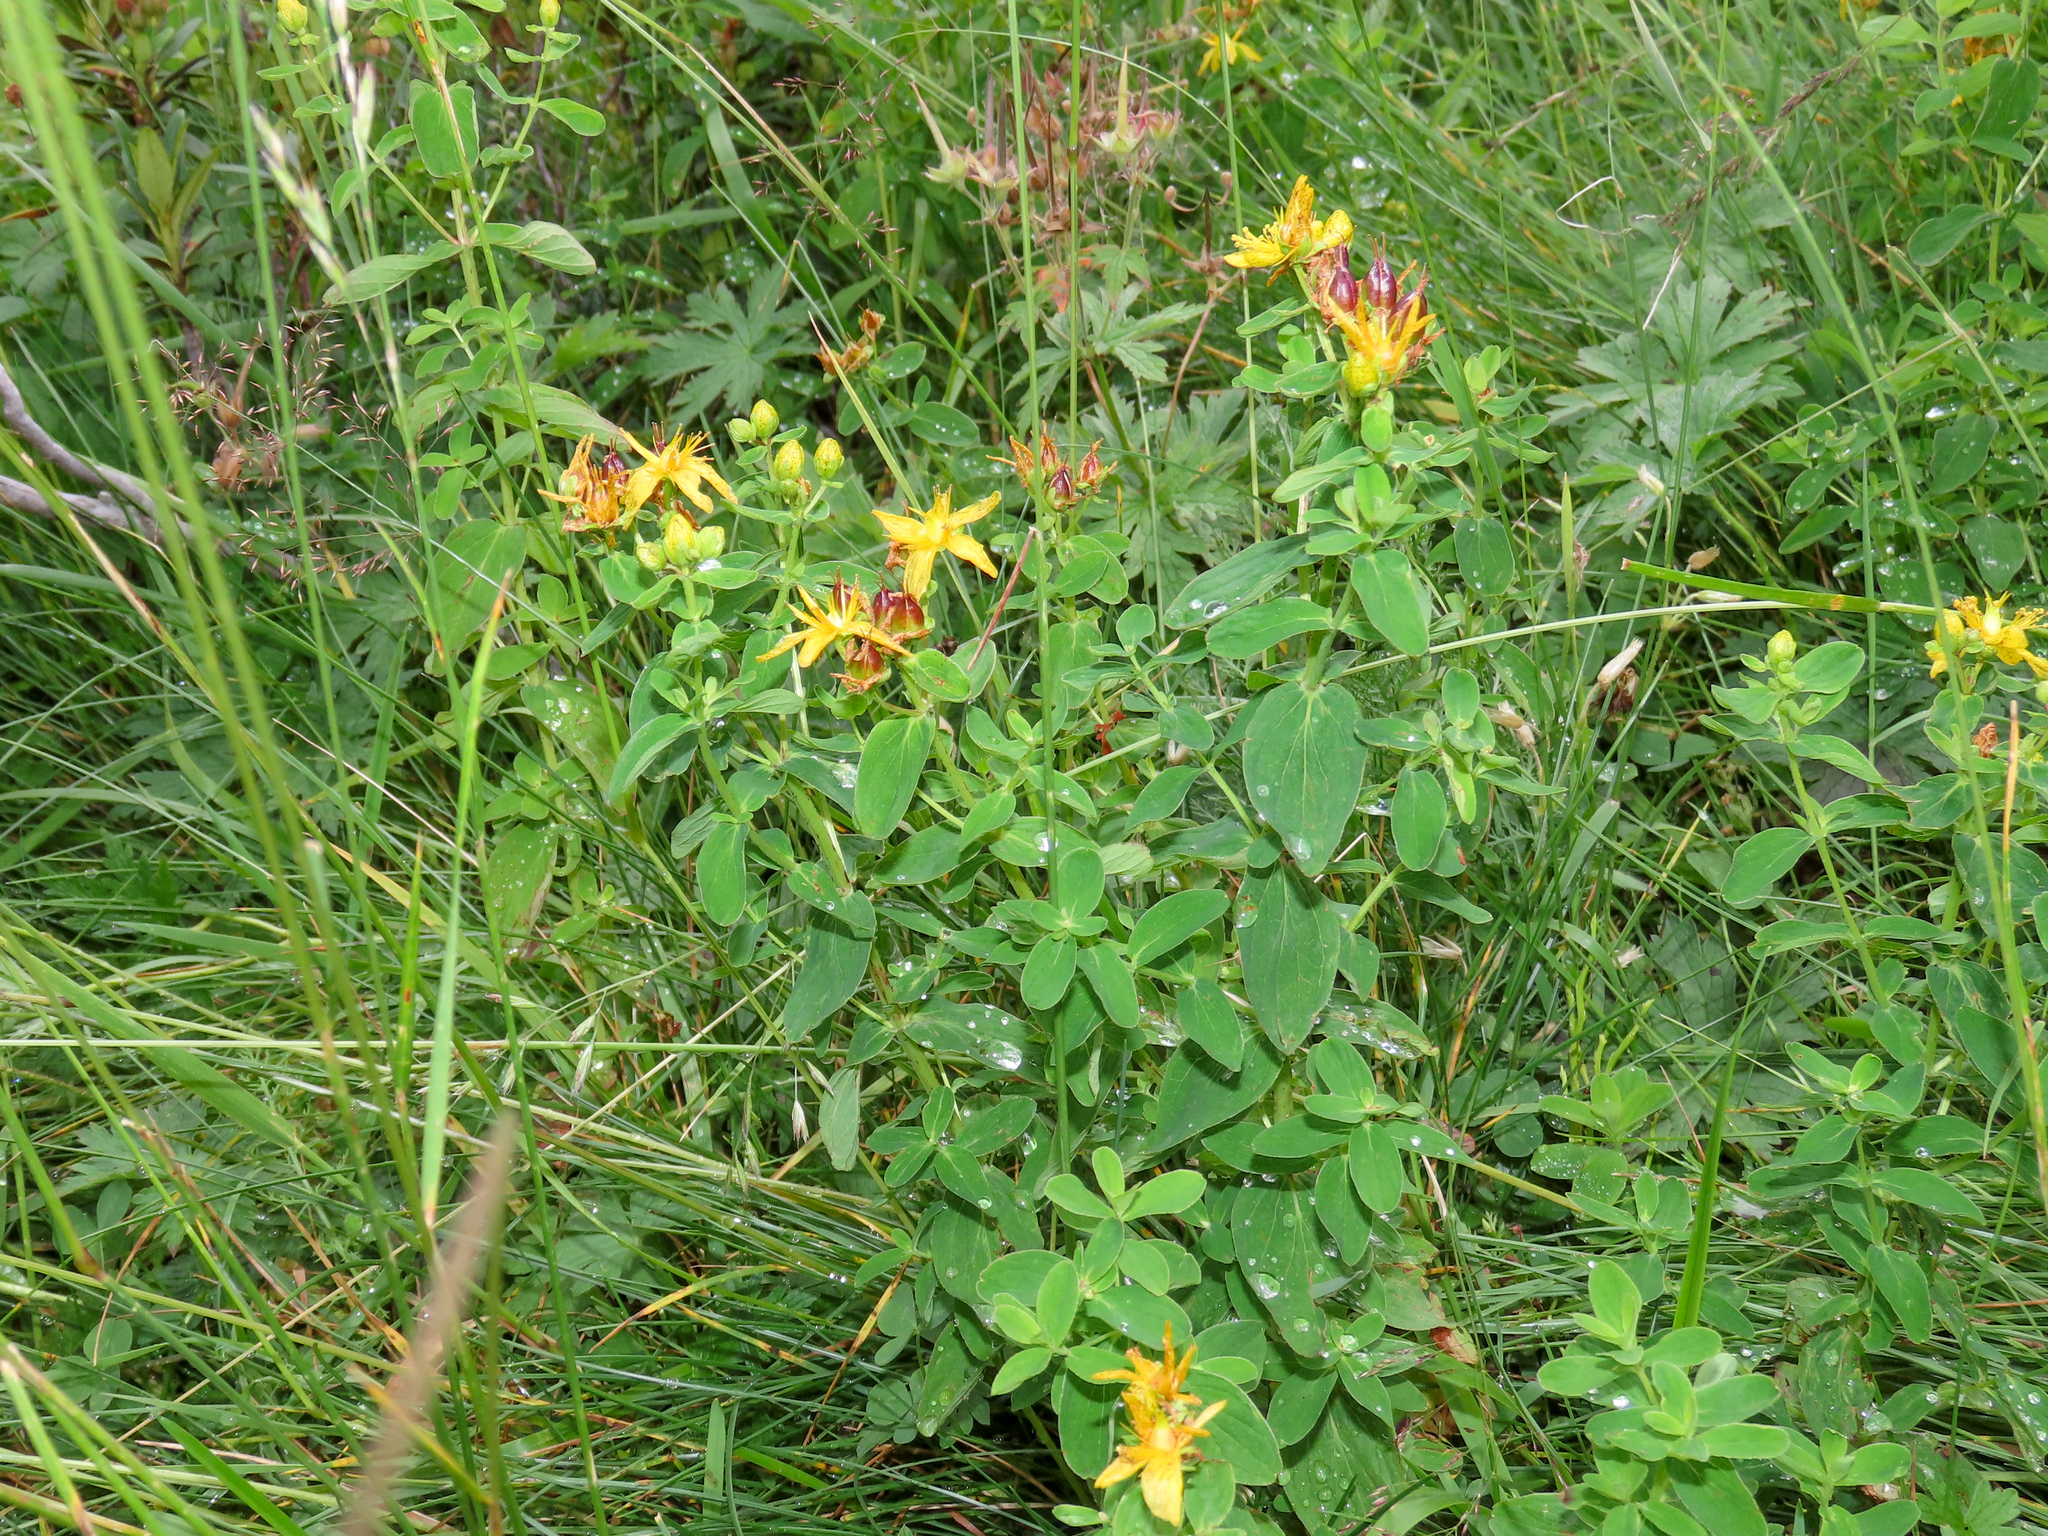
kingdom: Plantae
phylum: Tracheophyta
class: Magnoliopsida
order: Malpighiales
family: Hypericaceae
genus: Hypericum
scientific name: Hypericum maculatum
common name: Imperforate st. john's-wort
